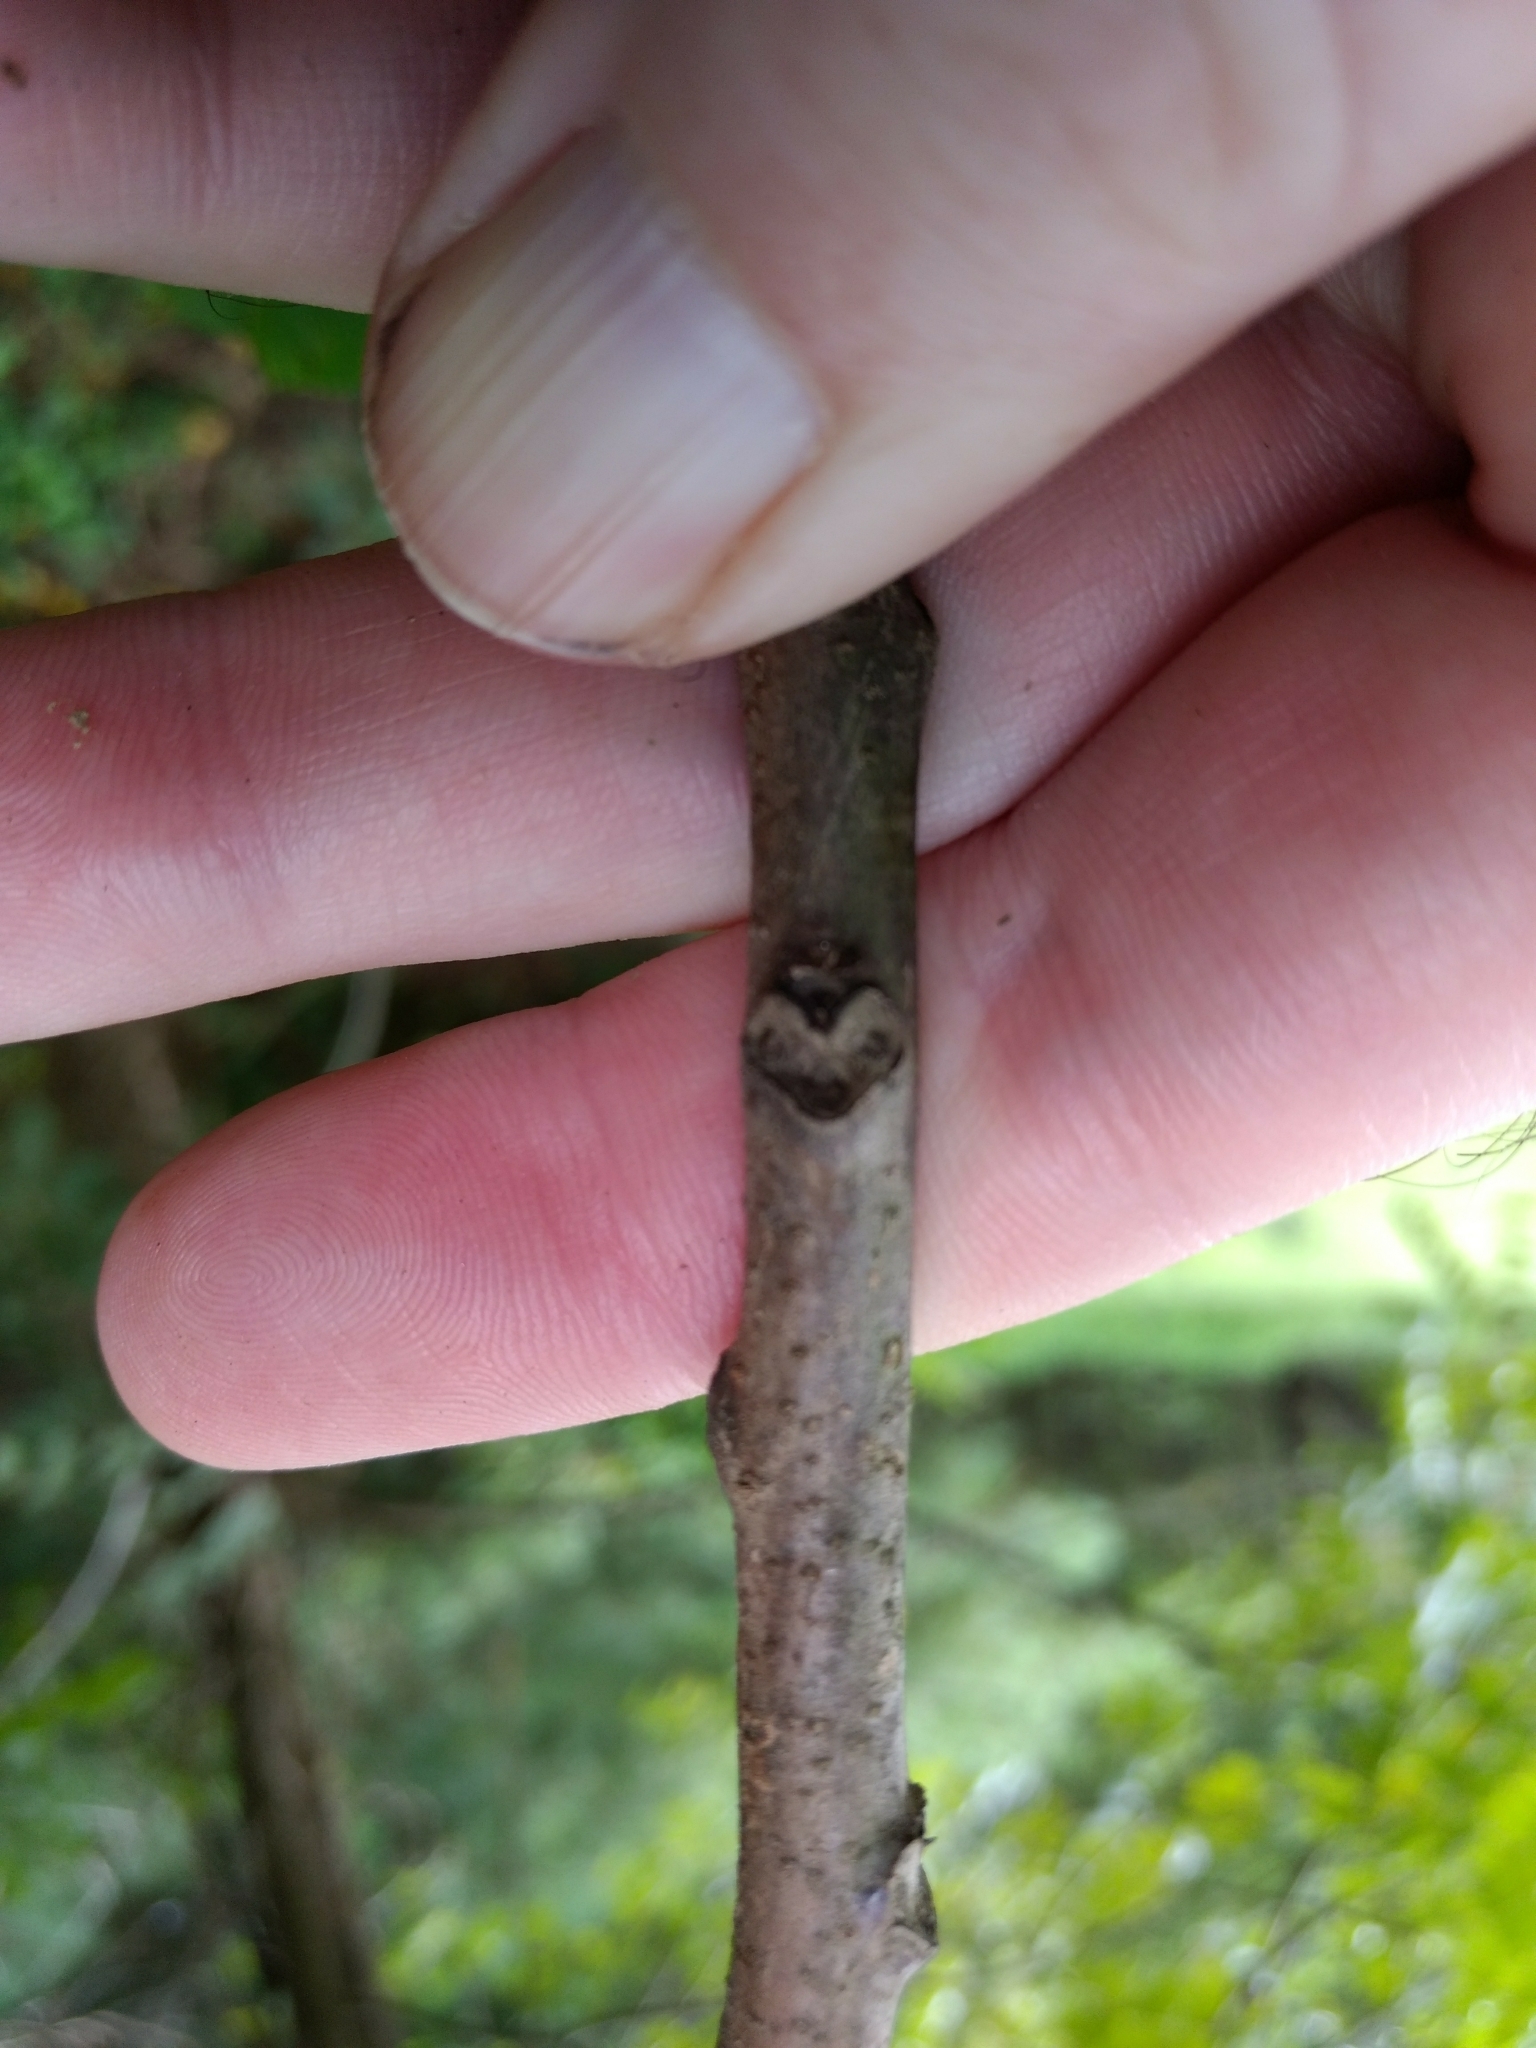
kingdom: Plantae
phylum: Tracheophyta
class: Magnoliopsida
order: Fagales
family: Juglandaceae
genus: Juglans
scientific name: Juglans nigra
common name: Black walnut
